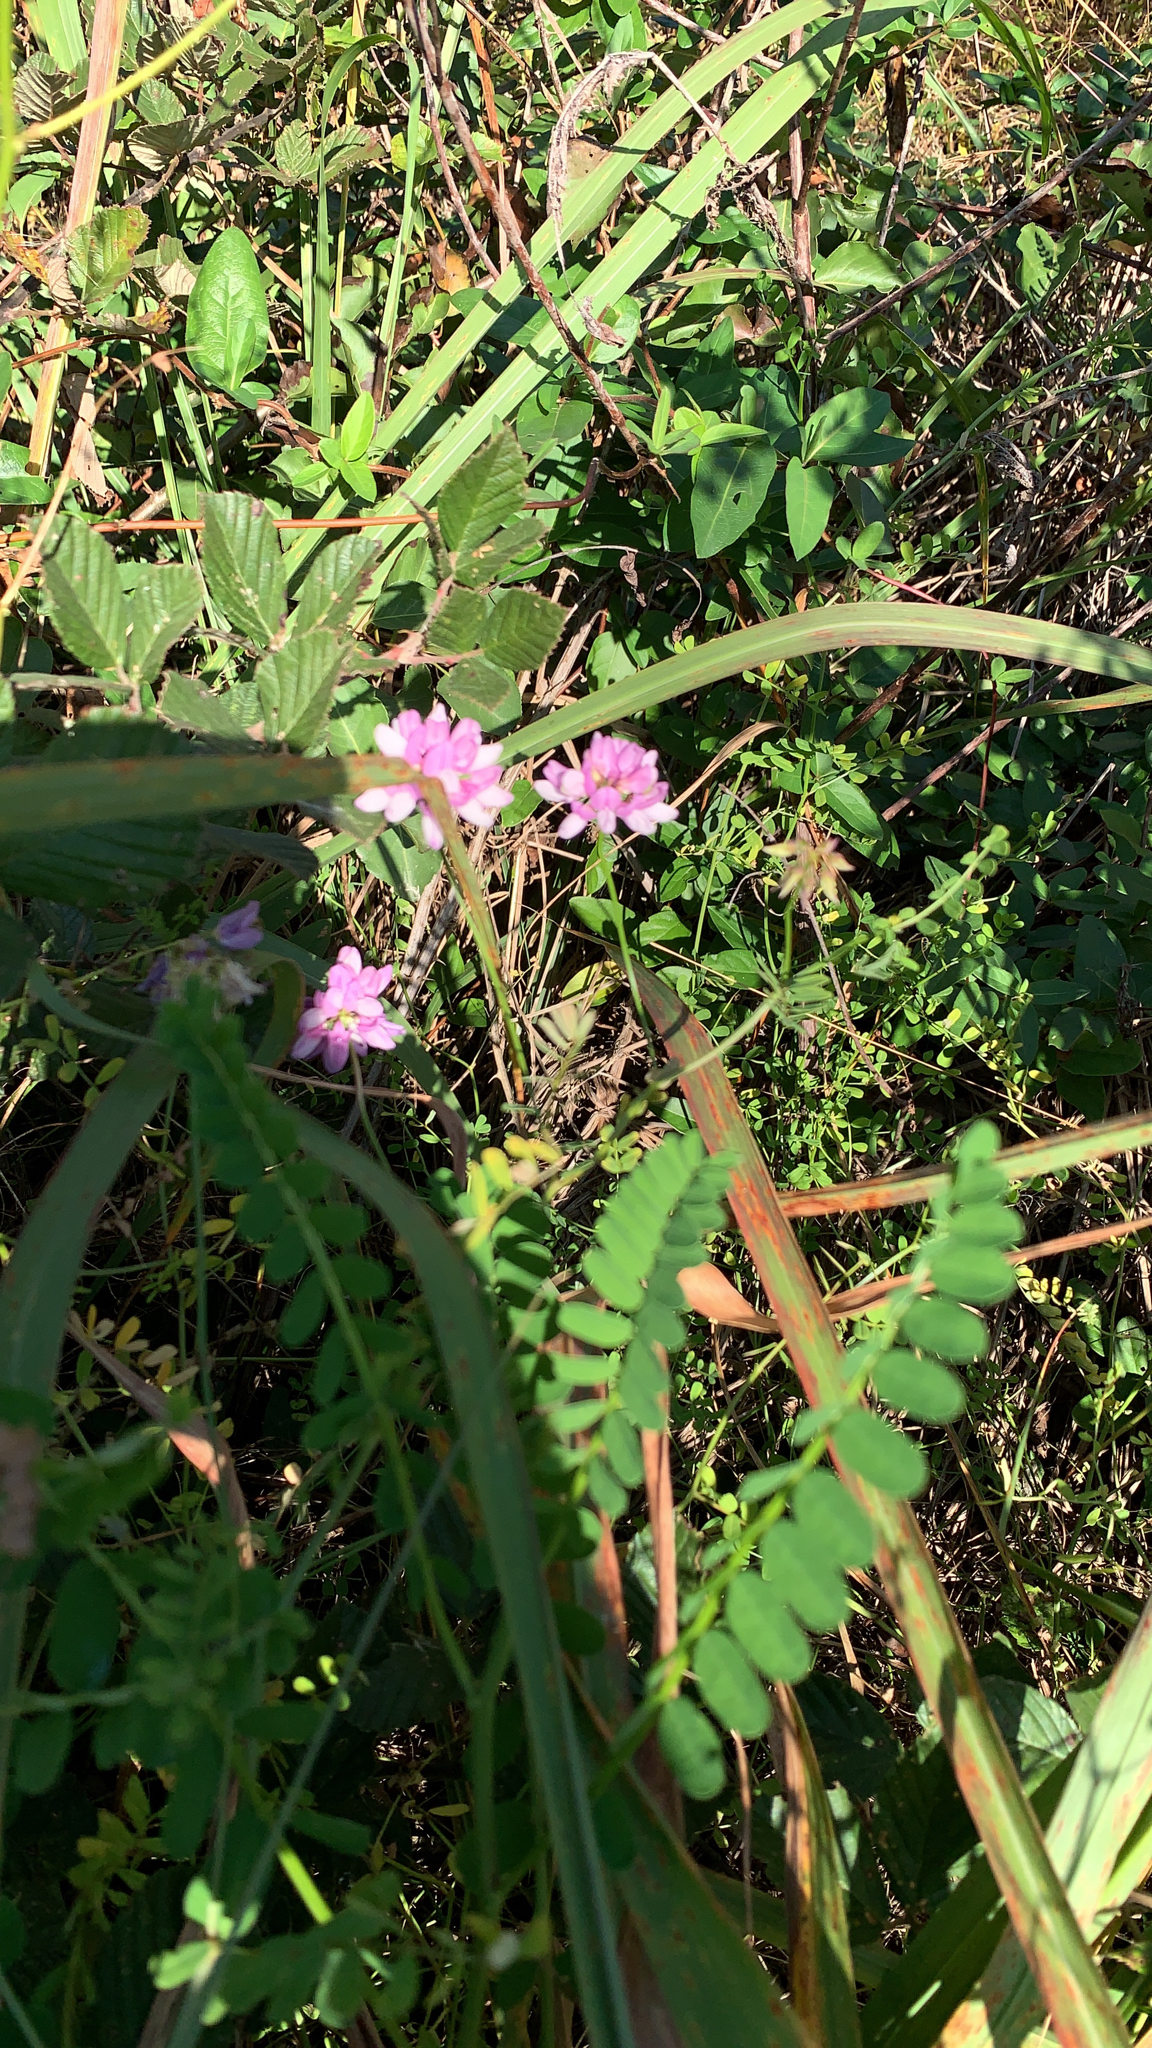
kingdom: Plantae
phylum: Tracheophyta
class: Magnoliopsida
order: Fabales
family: Fabaceae
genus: Coronilla
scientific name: Coronilla varia
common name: Crownvetch
